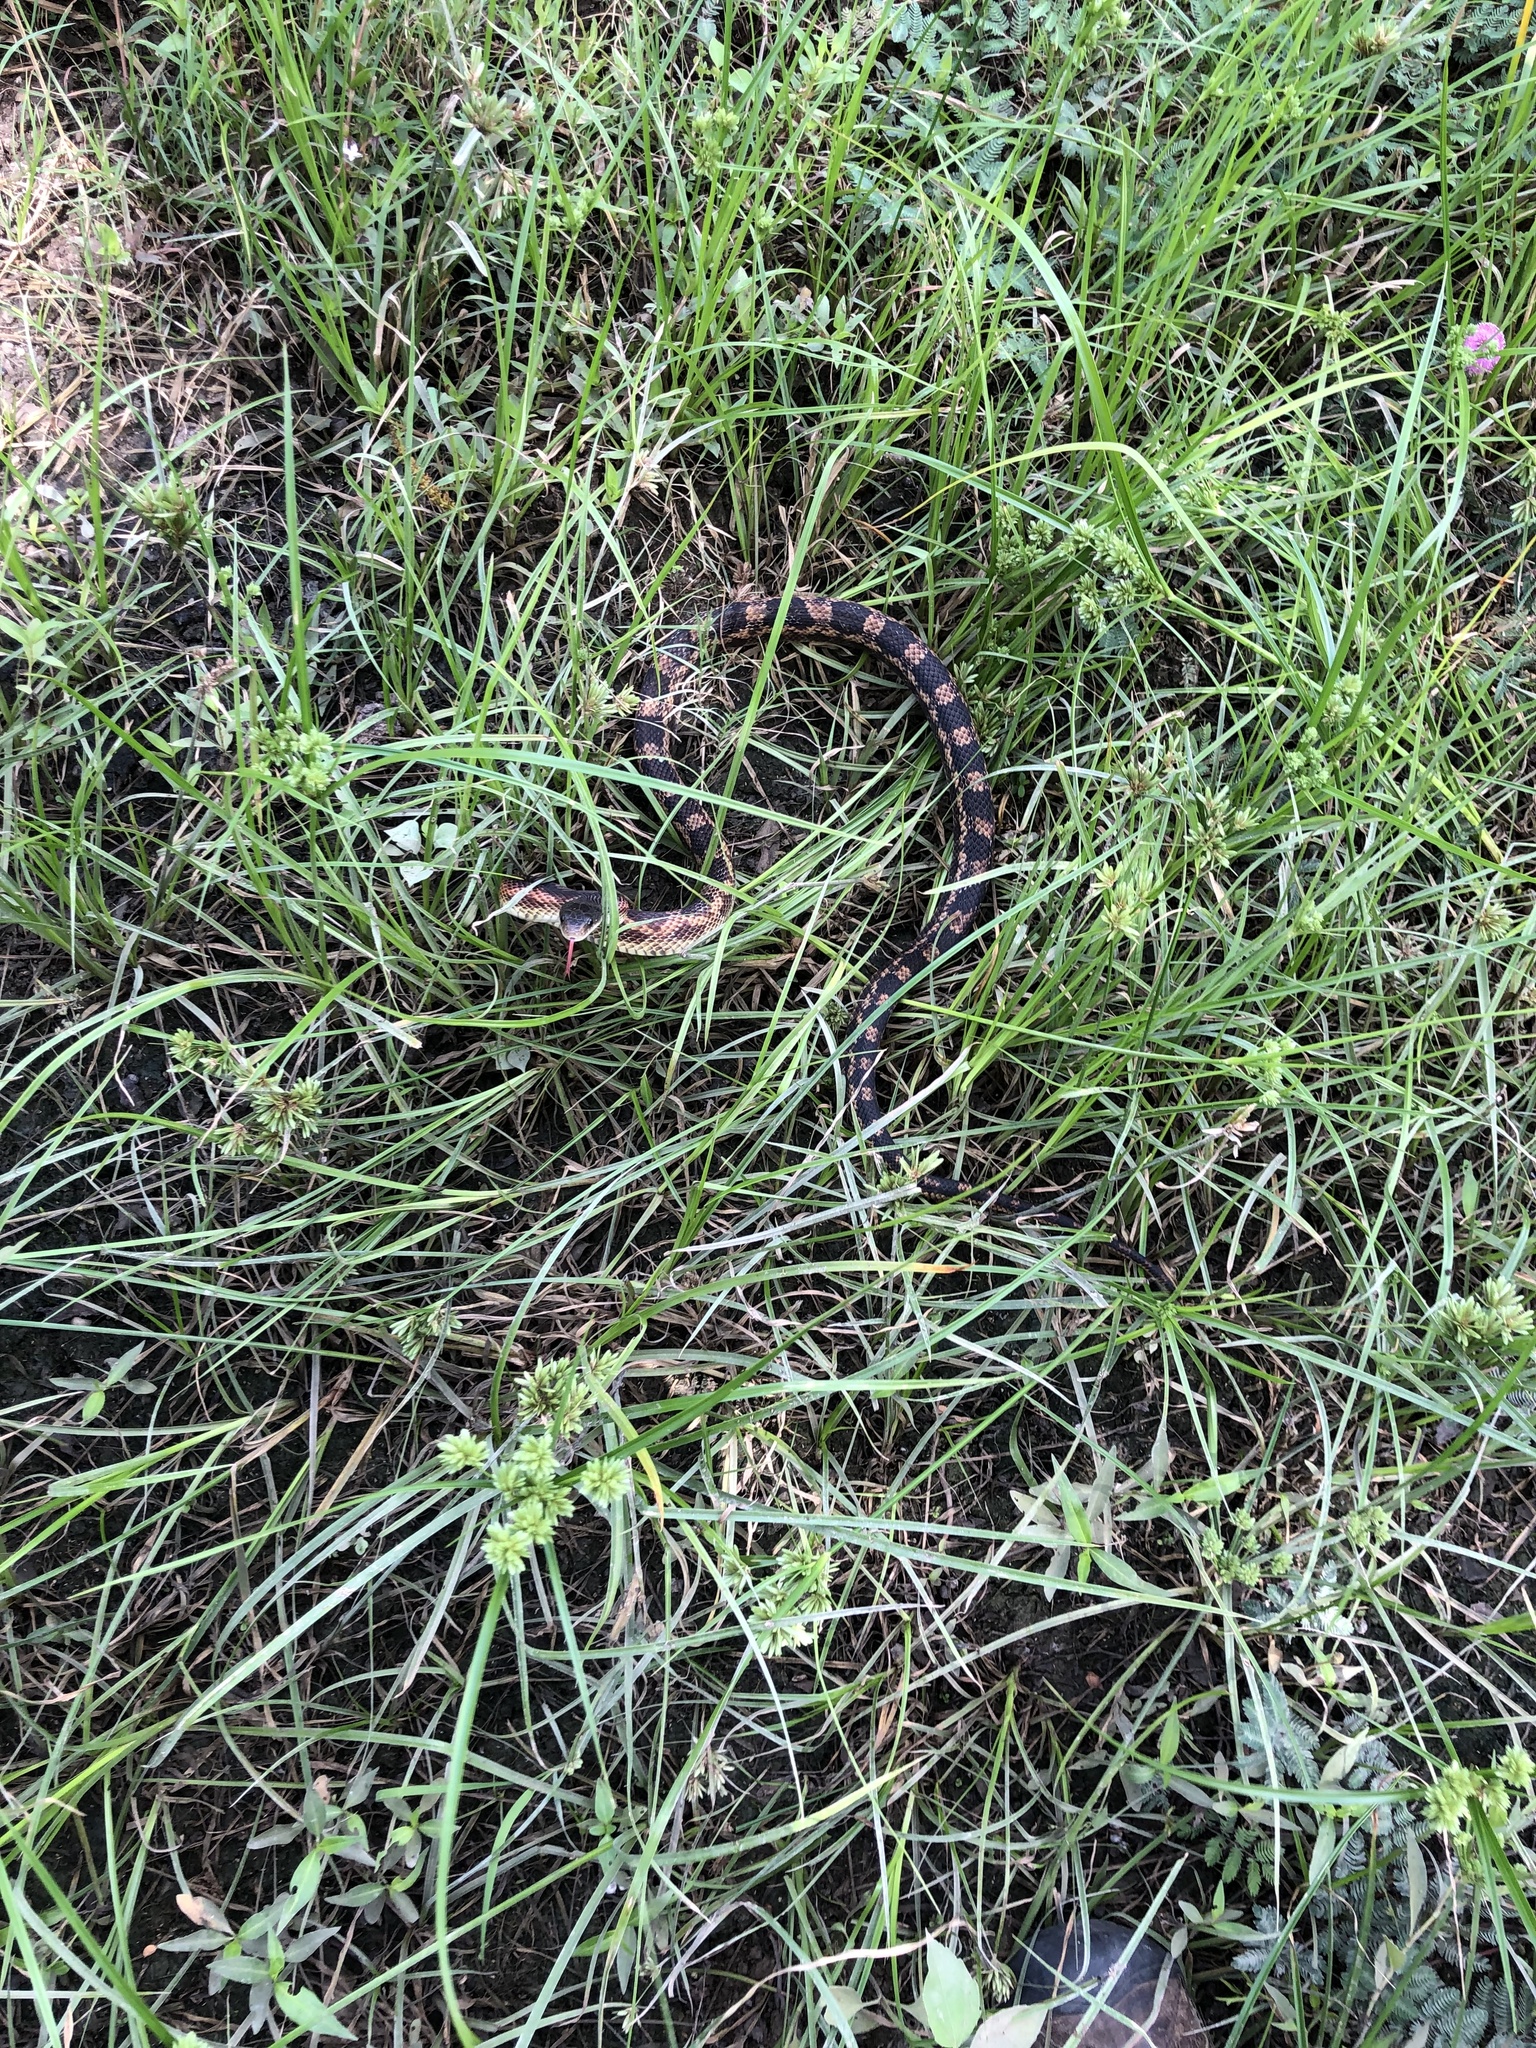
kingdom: Animalia
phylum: Chordata
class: Squamata
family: Colubridae
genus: Pantherophis
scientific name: Pantherophis obsoletus
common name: Black rat snake
